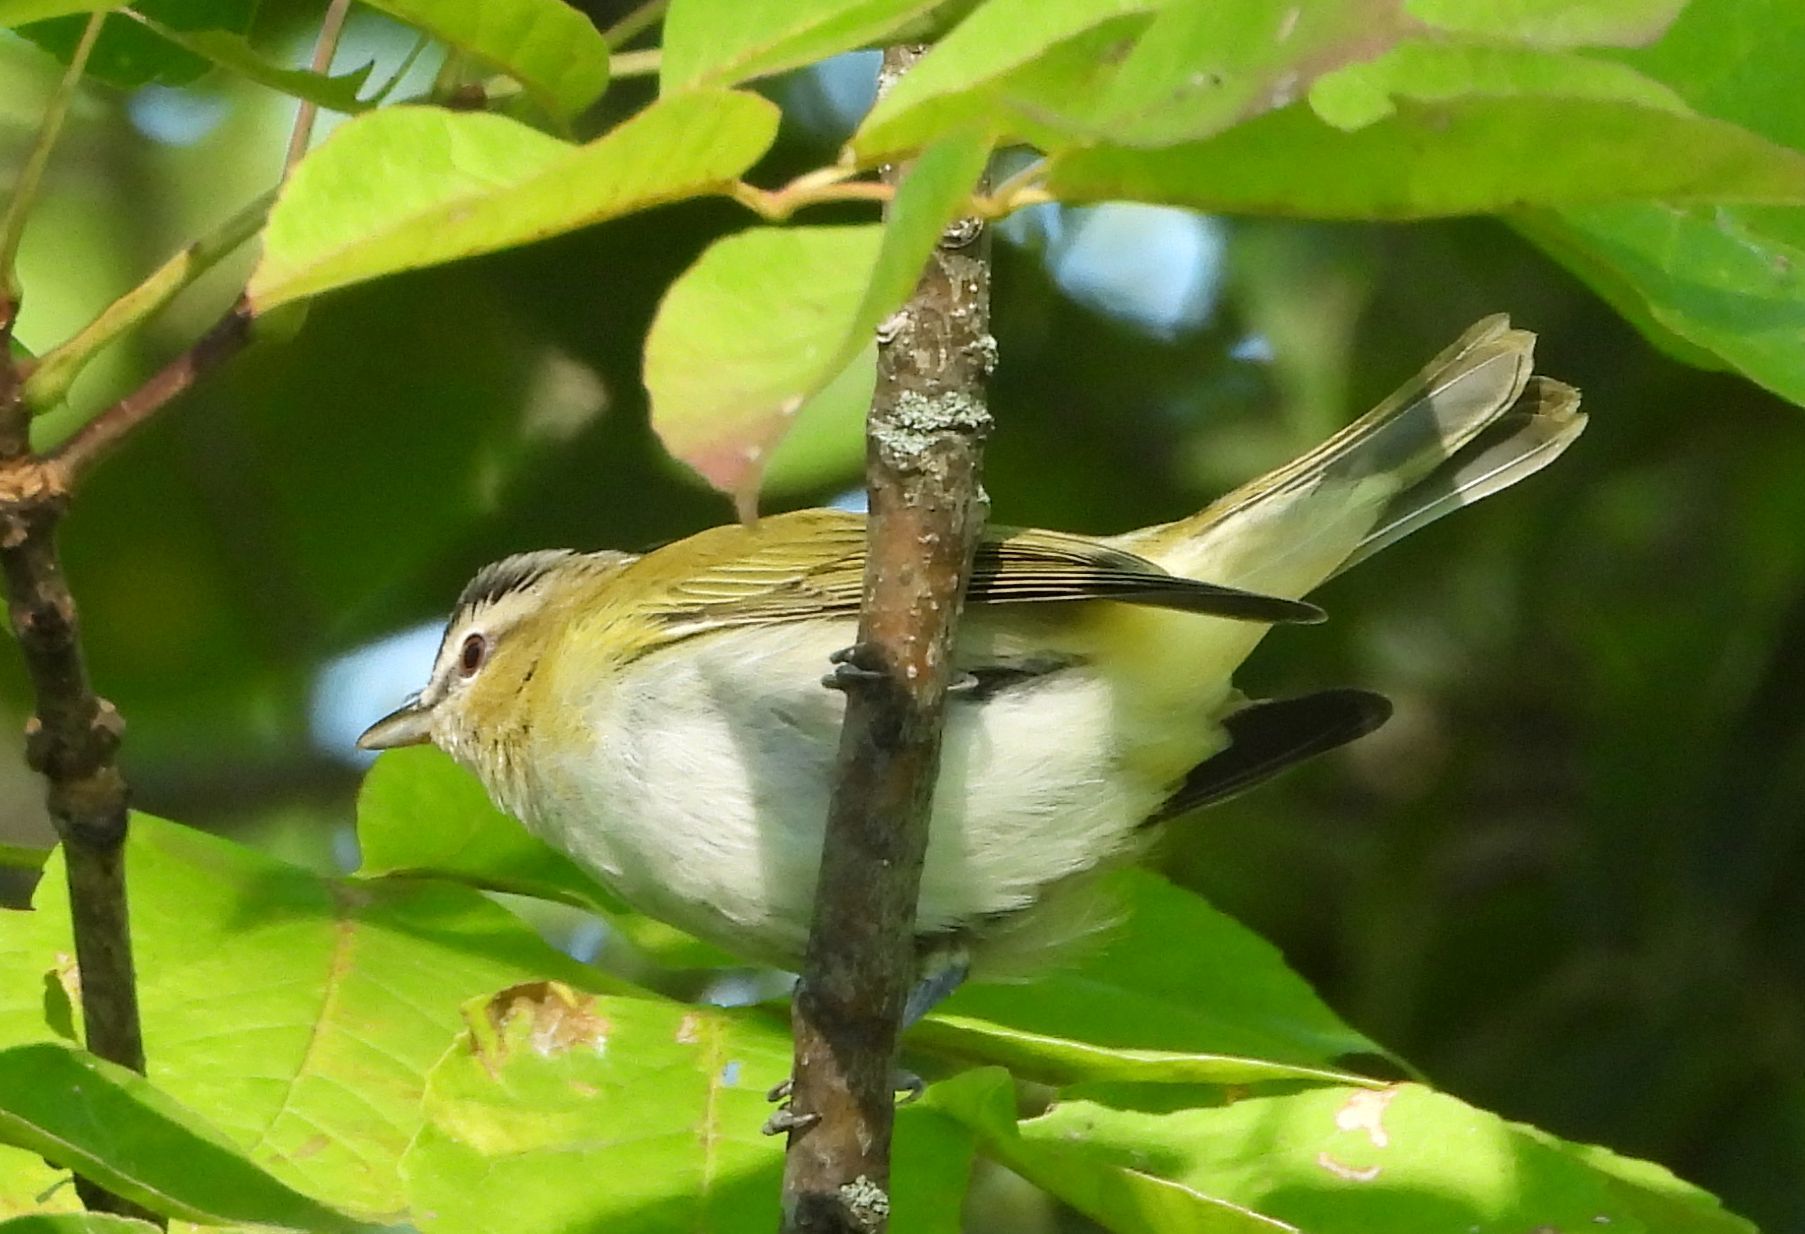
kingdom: Animalia
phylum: Chordata
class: Aves
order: Passeriformes
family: Vireonidae
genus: Vireo
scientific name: Vireo olivaceus
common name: Red-eyed vireo
